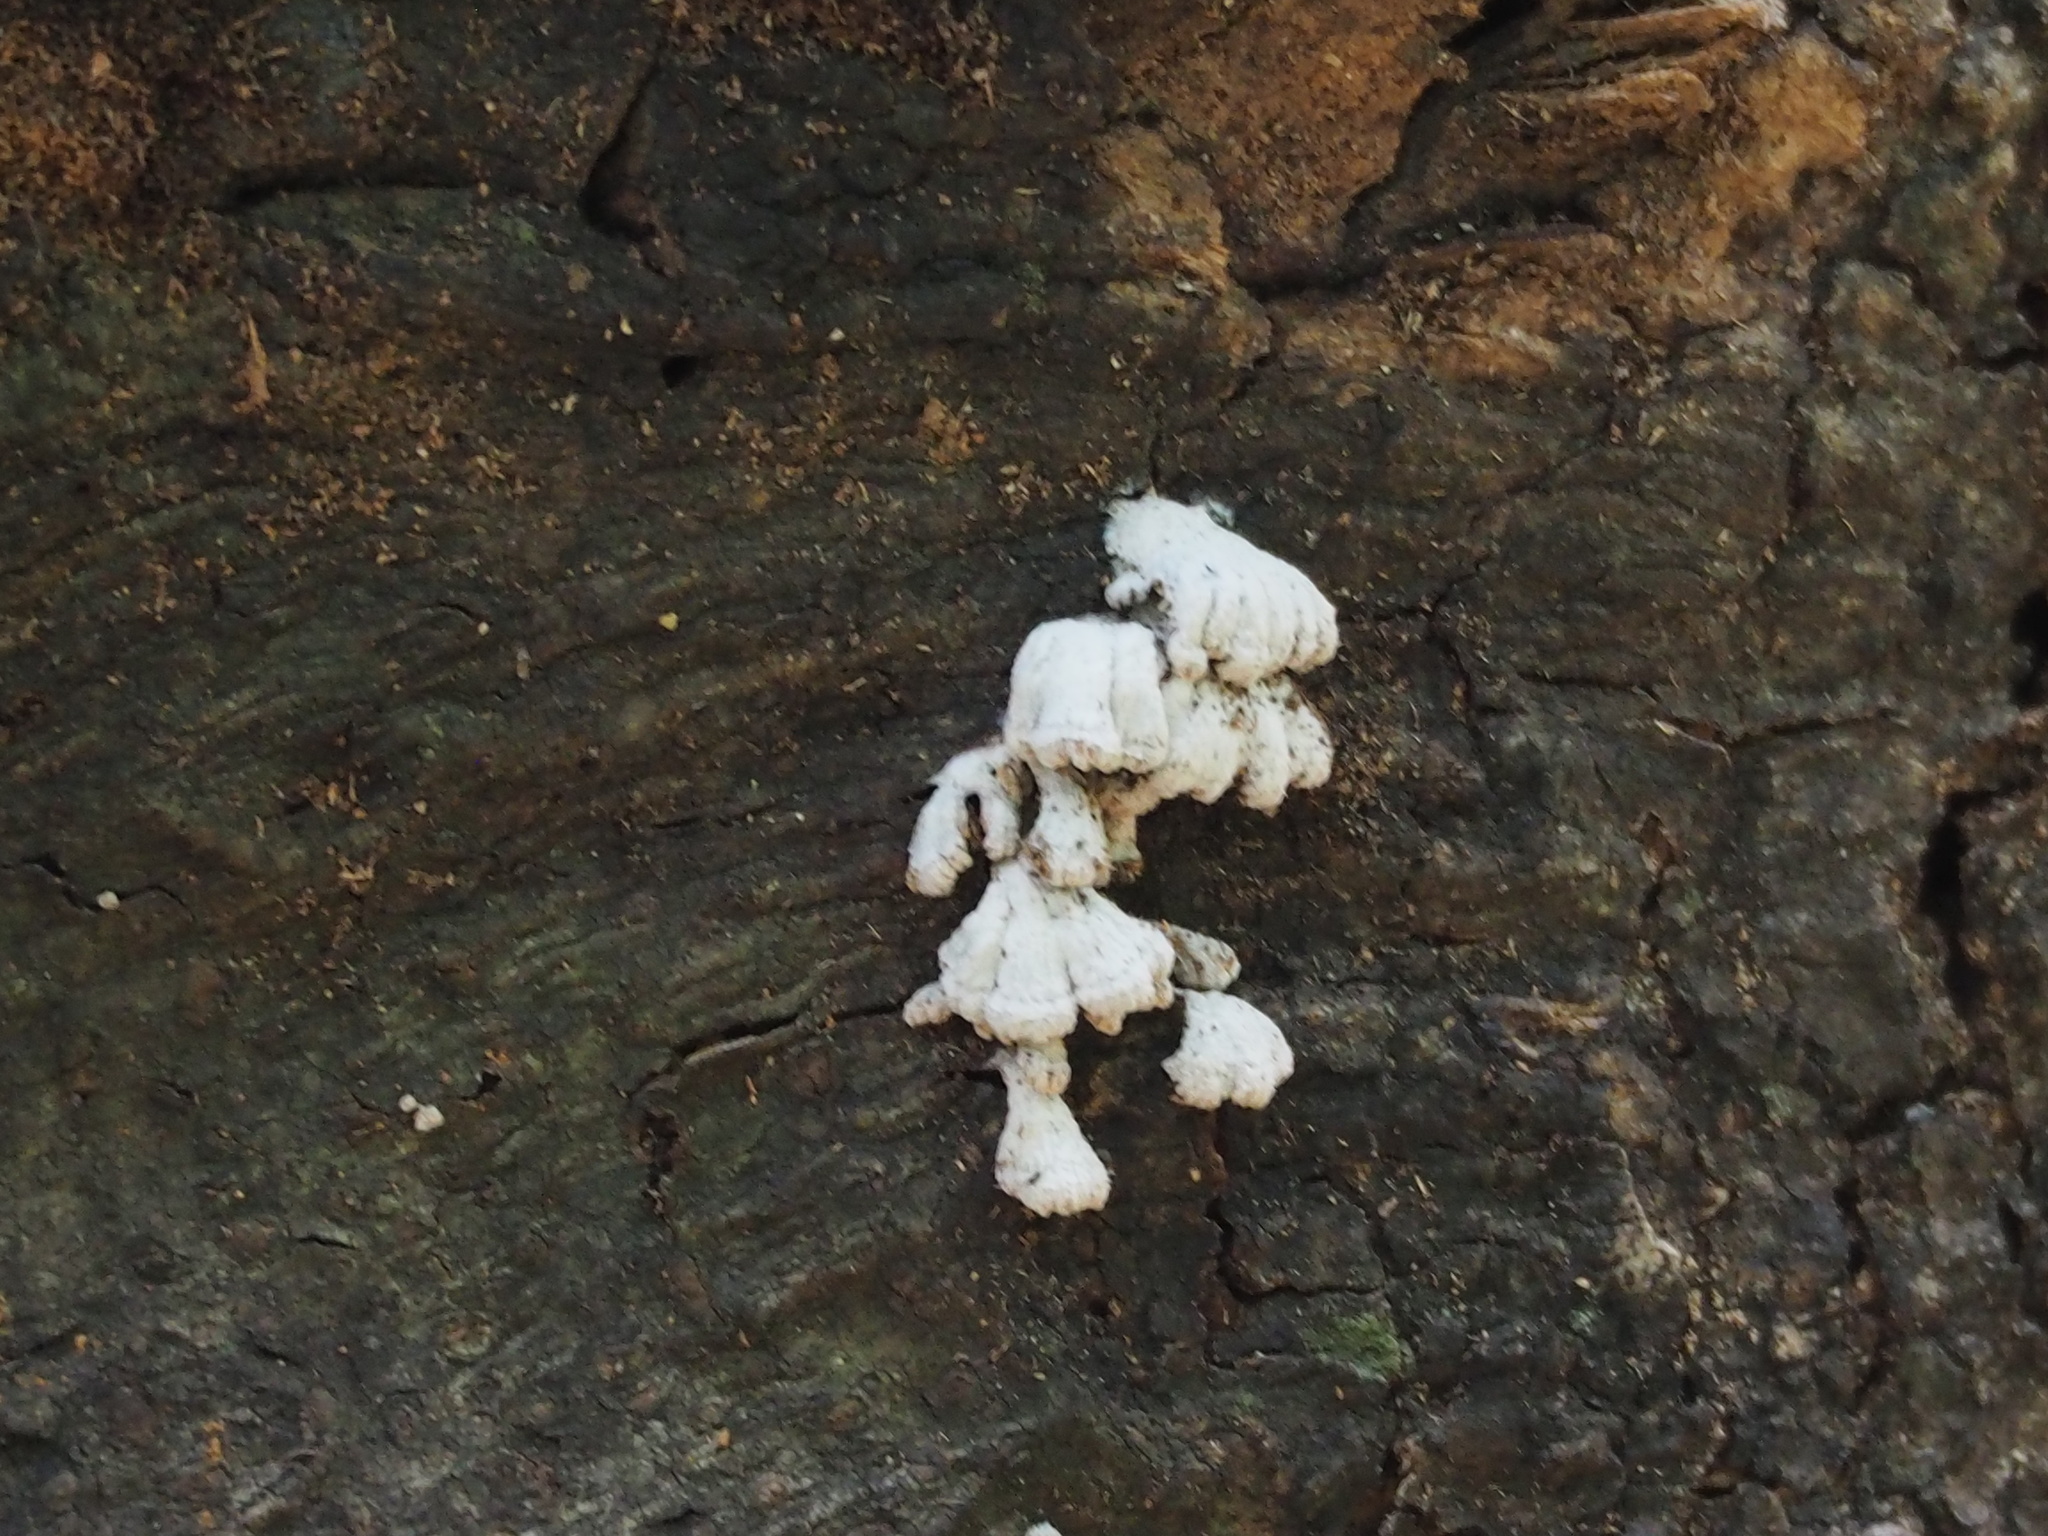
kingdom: Fungi
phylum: Basidiomycota
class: Agaricomycetes
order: Agaricales
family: Schizophyllaceae
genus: Schizophyllum
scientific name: Schizophyllum commune
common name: Common porecrust
